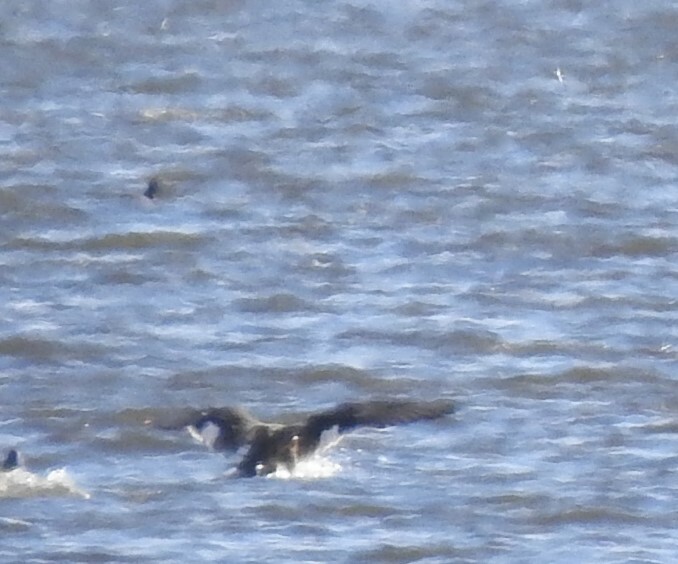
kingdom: Animalia
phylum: Chordata
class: Aves
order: Anseriformes
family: Anatidae
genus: Bucephala
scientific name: Bucephala clangula
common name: Common goldeneye
